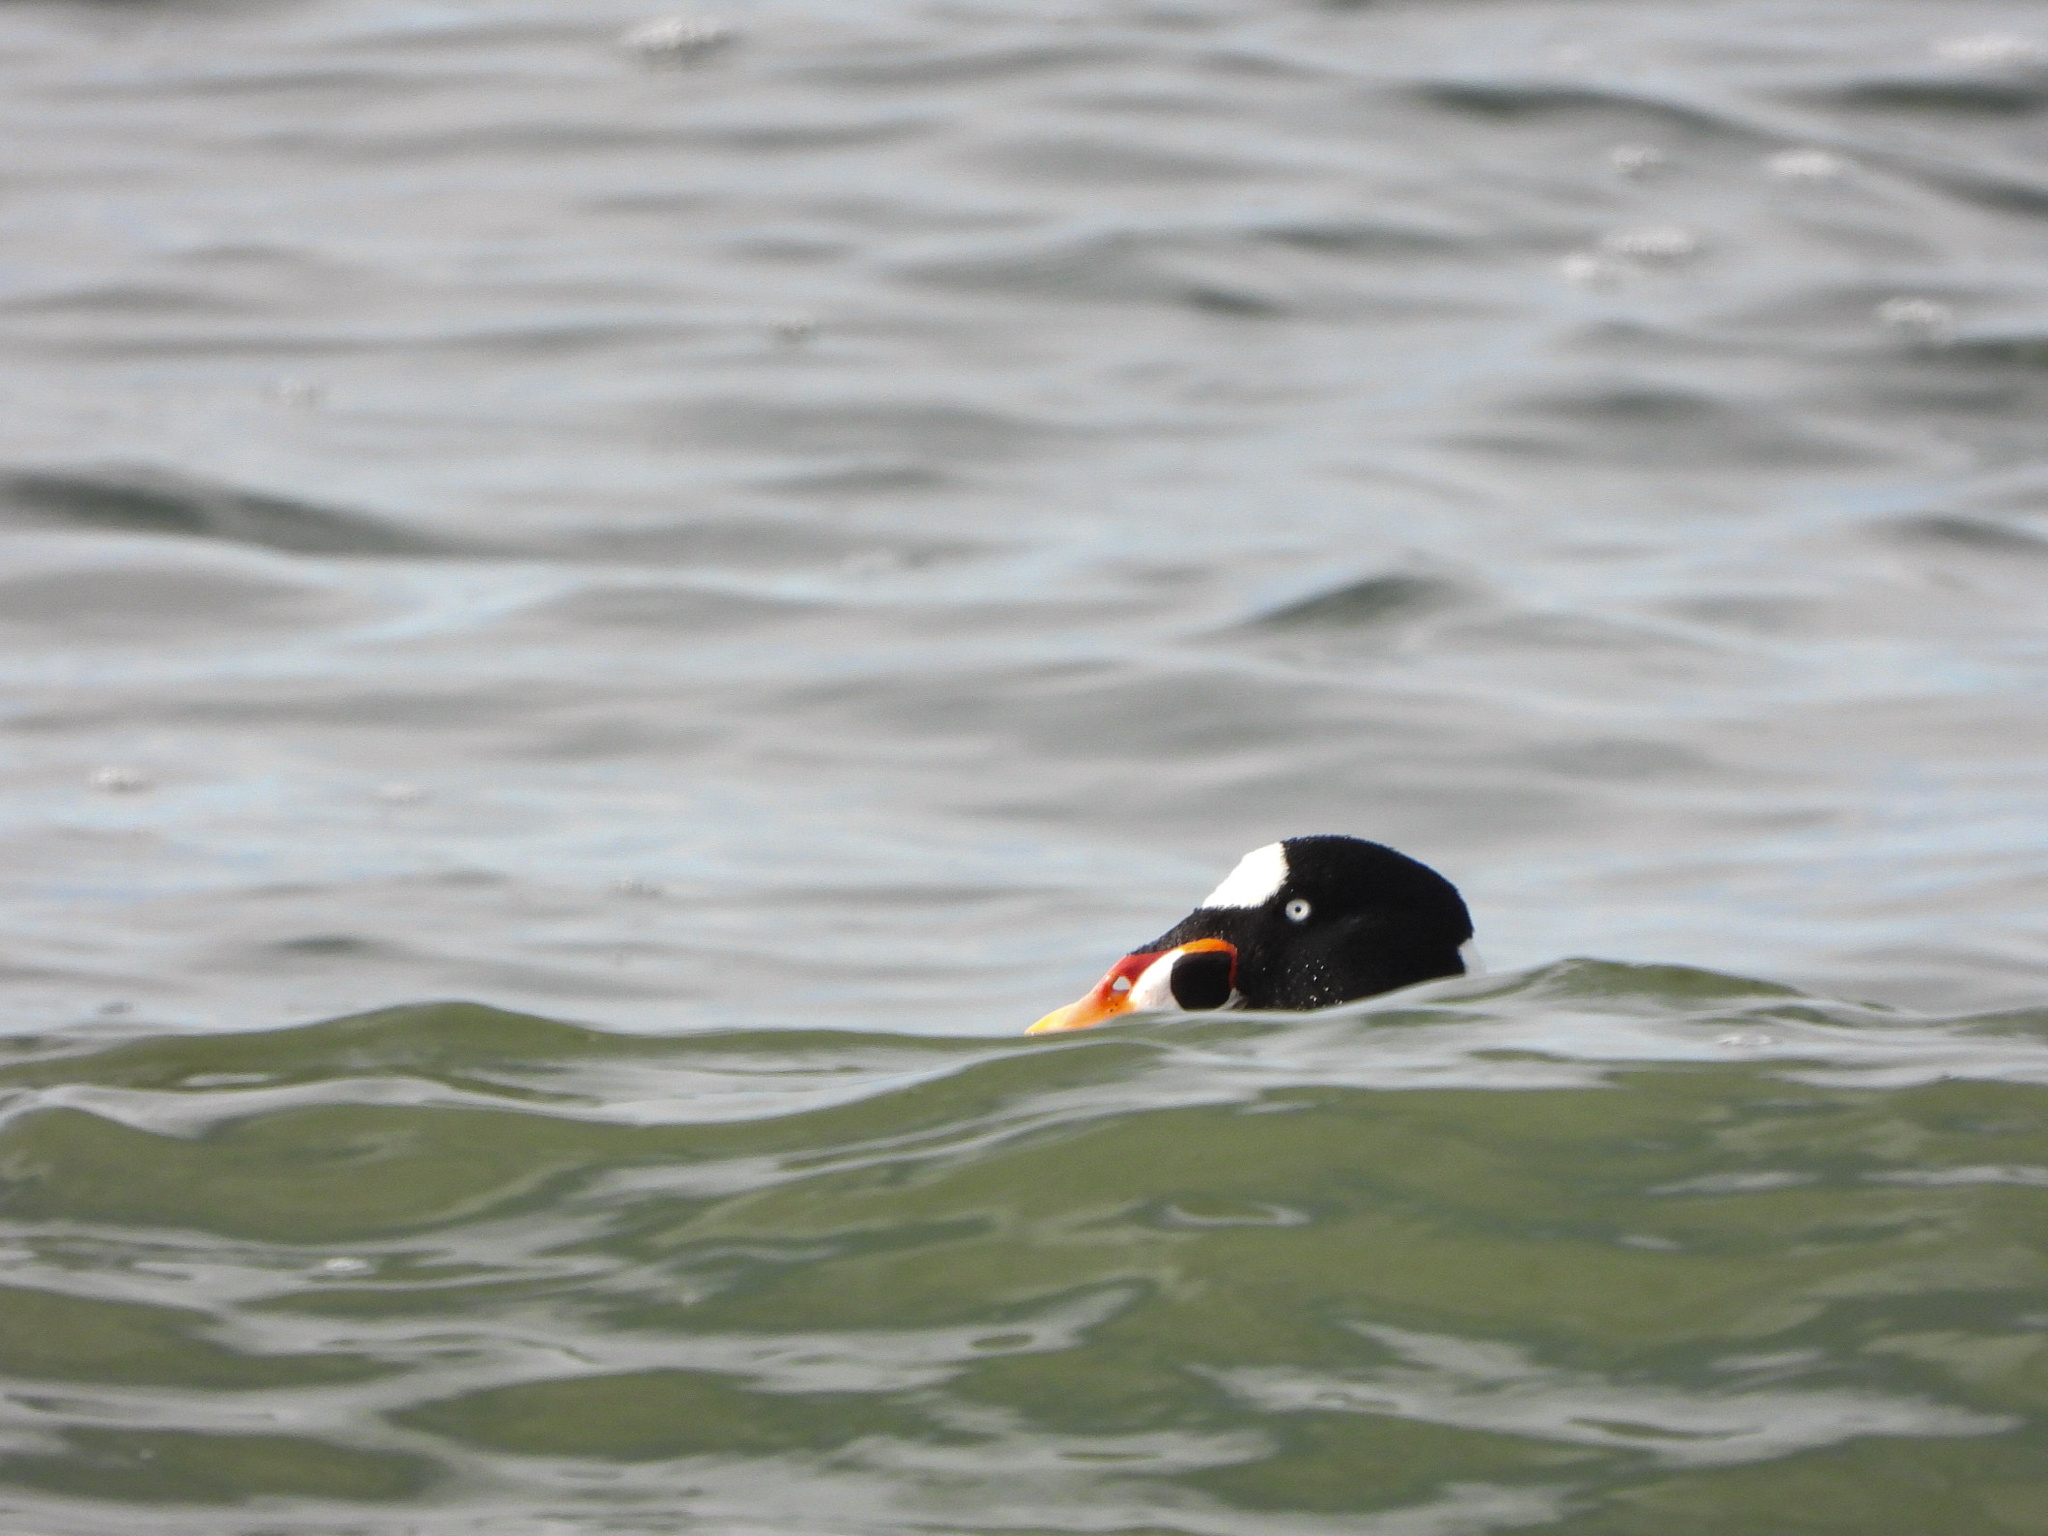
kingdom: Animalia
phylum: Chordata
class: Aves
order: Anseriformes
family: Anatidae
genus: Melanitta
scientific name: Melanitta perspicillata
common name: Surf scoter
